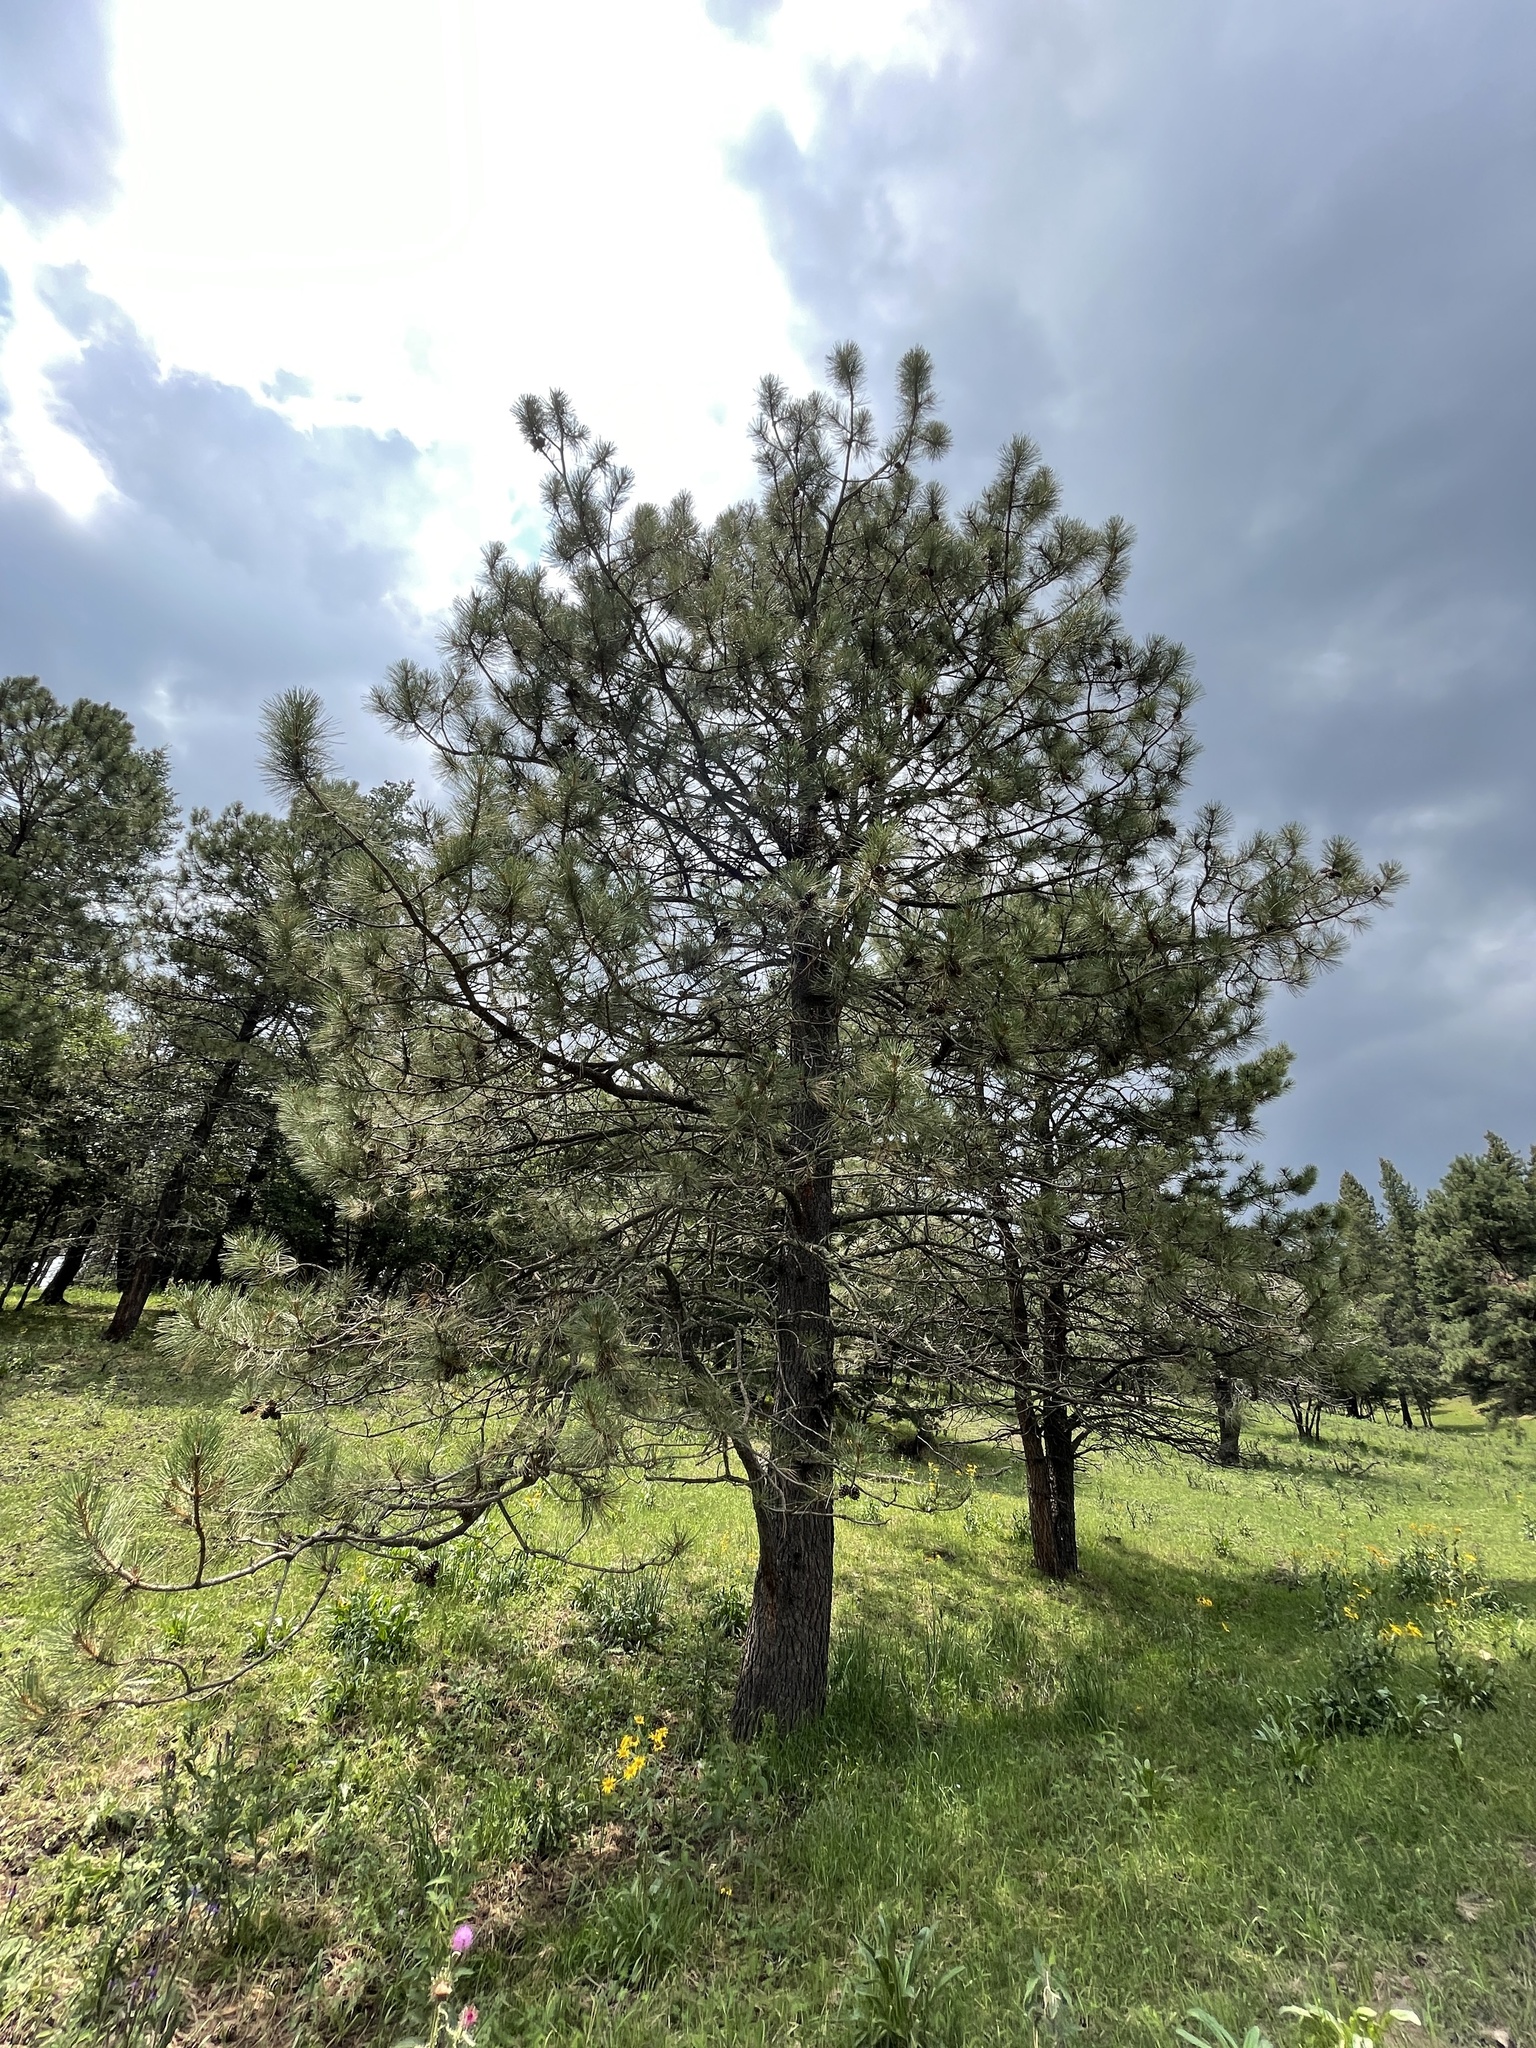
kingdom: Plantae
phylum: Tracheophyta
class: Pinopsida
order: Pinales
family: Pinaceae
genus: Pinus
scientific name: Pinus ponderosa
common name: Western yellow-pine
